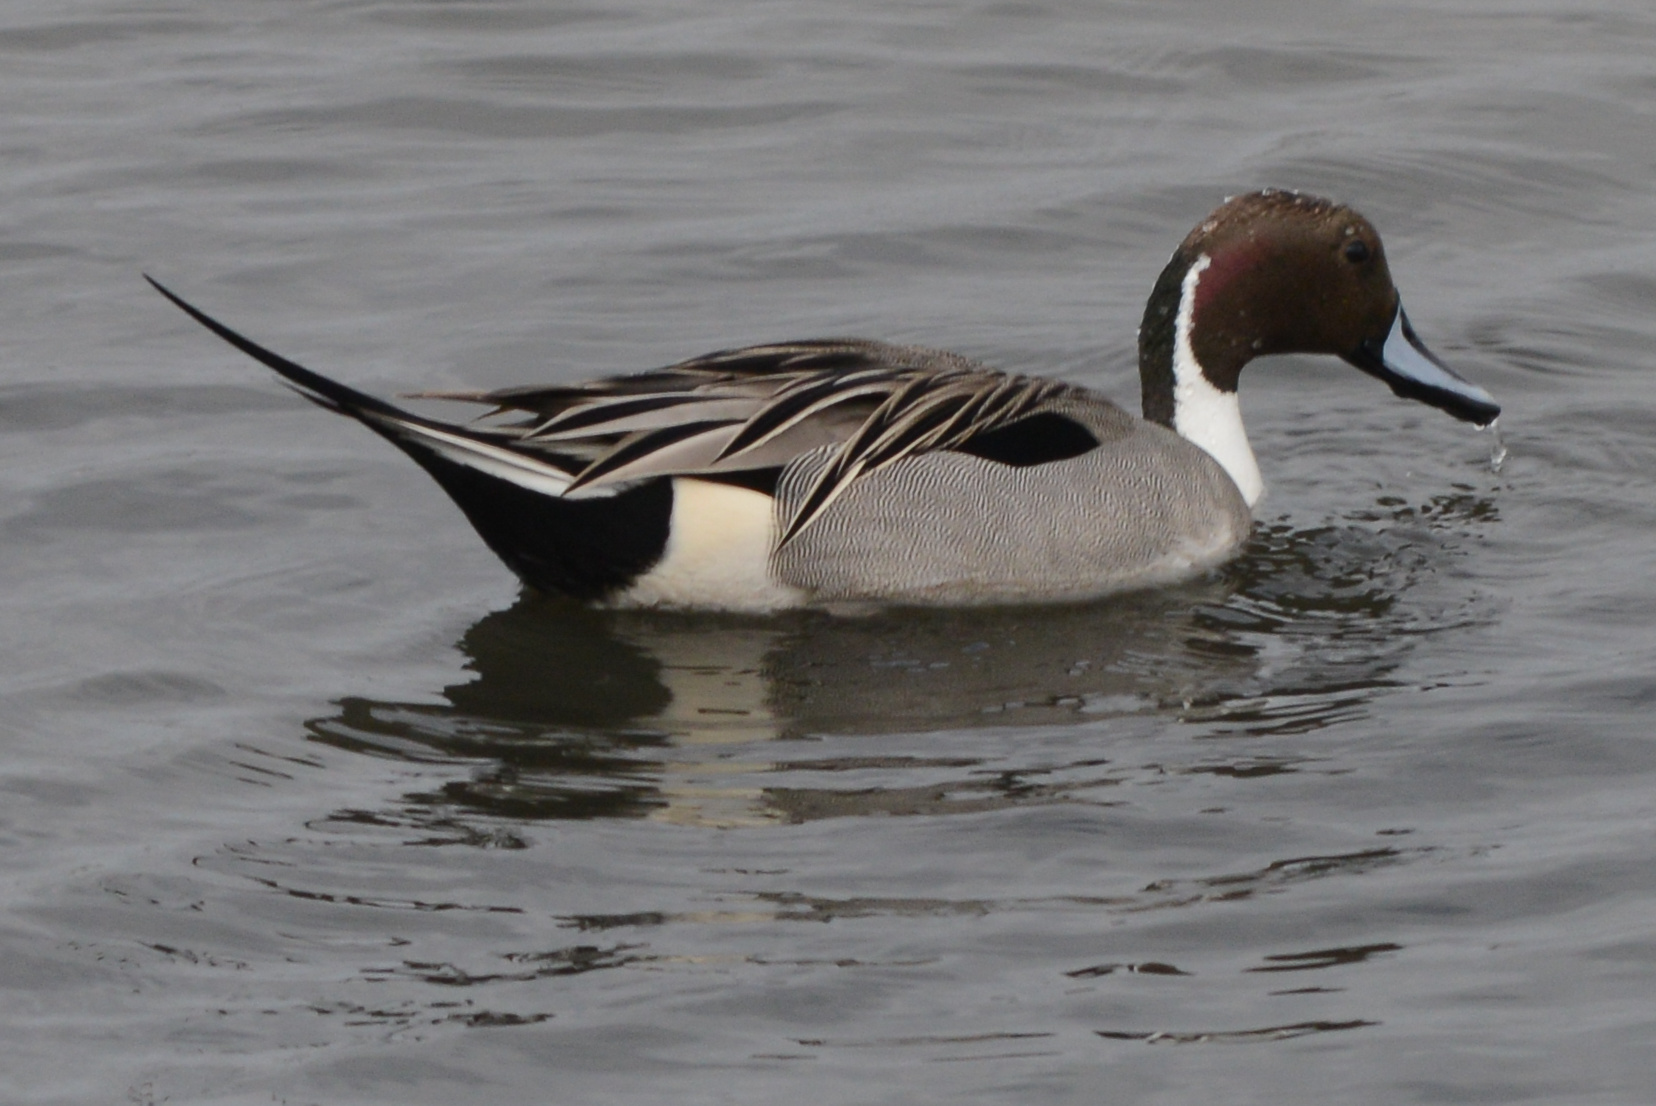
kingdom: Animalia
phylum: Chordata
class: Aves
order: Anseriformes
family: Anatidae
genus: Anas
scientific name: Anas acuta
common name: Northern pintail
